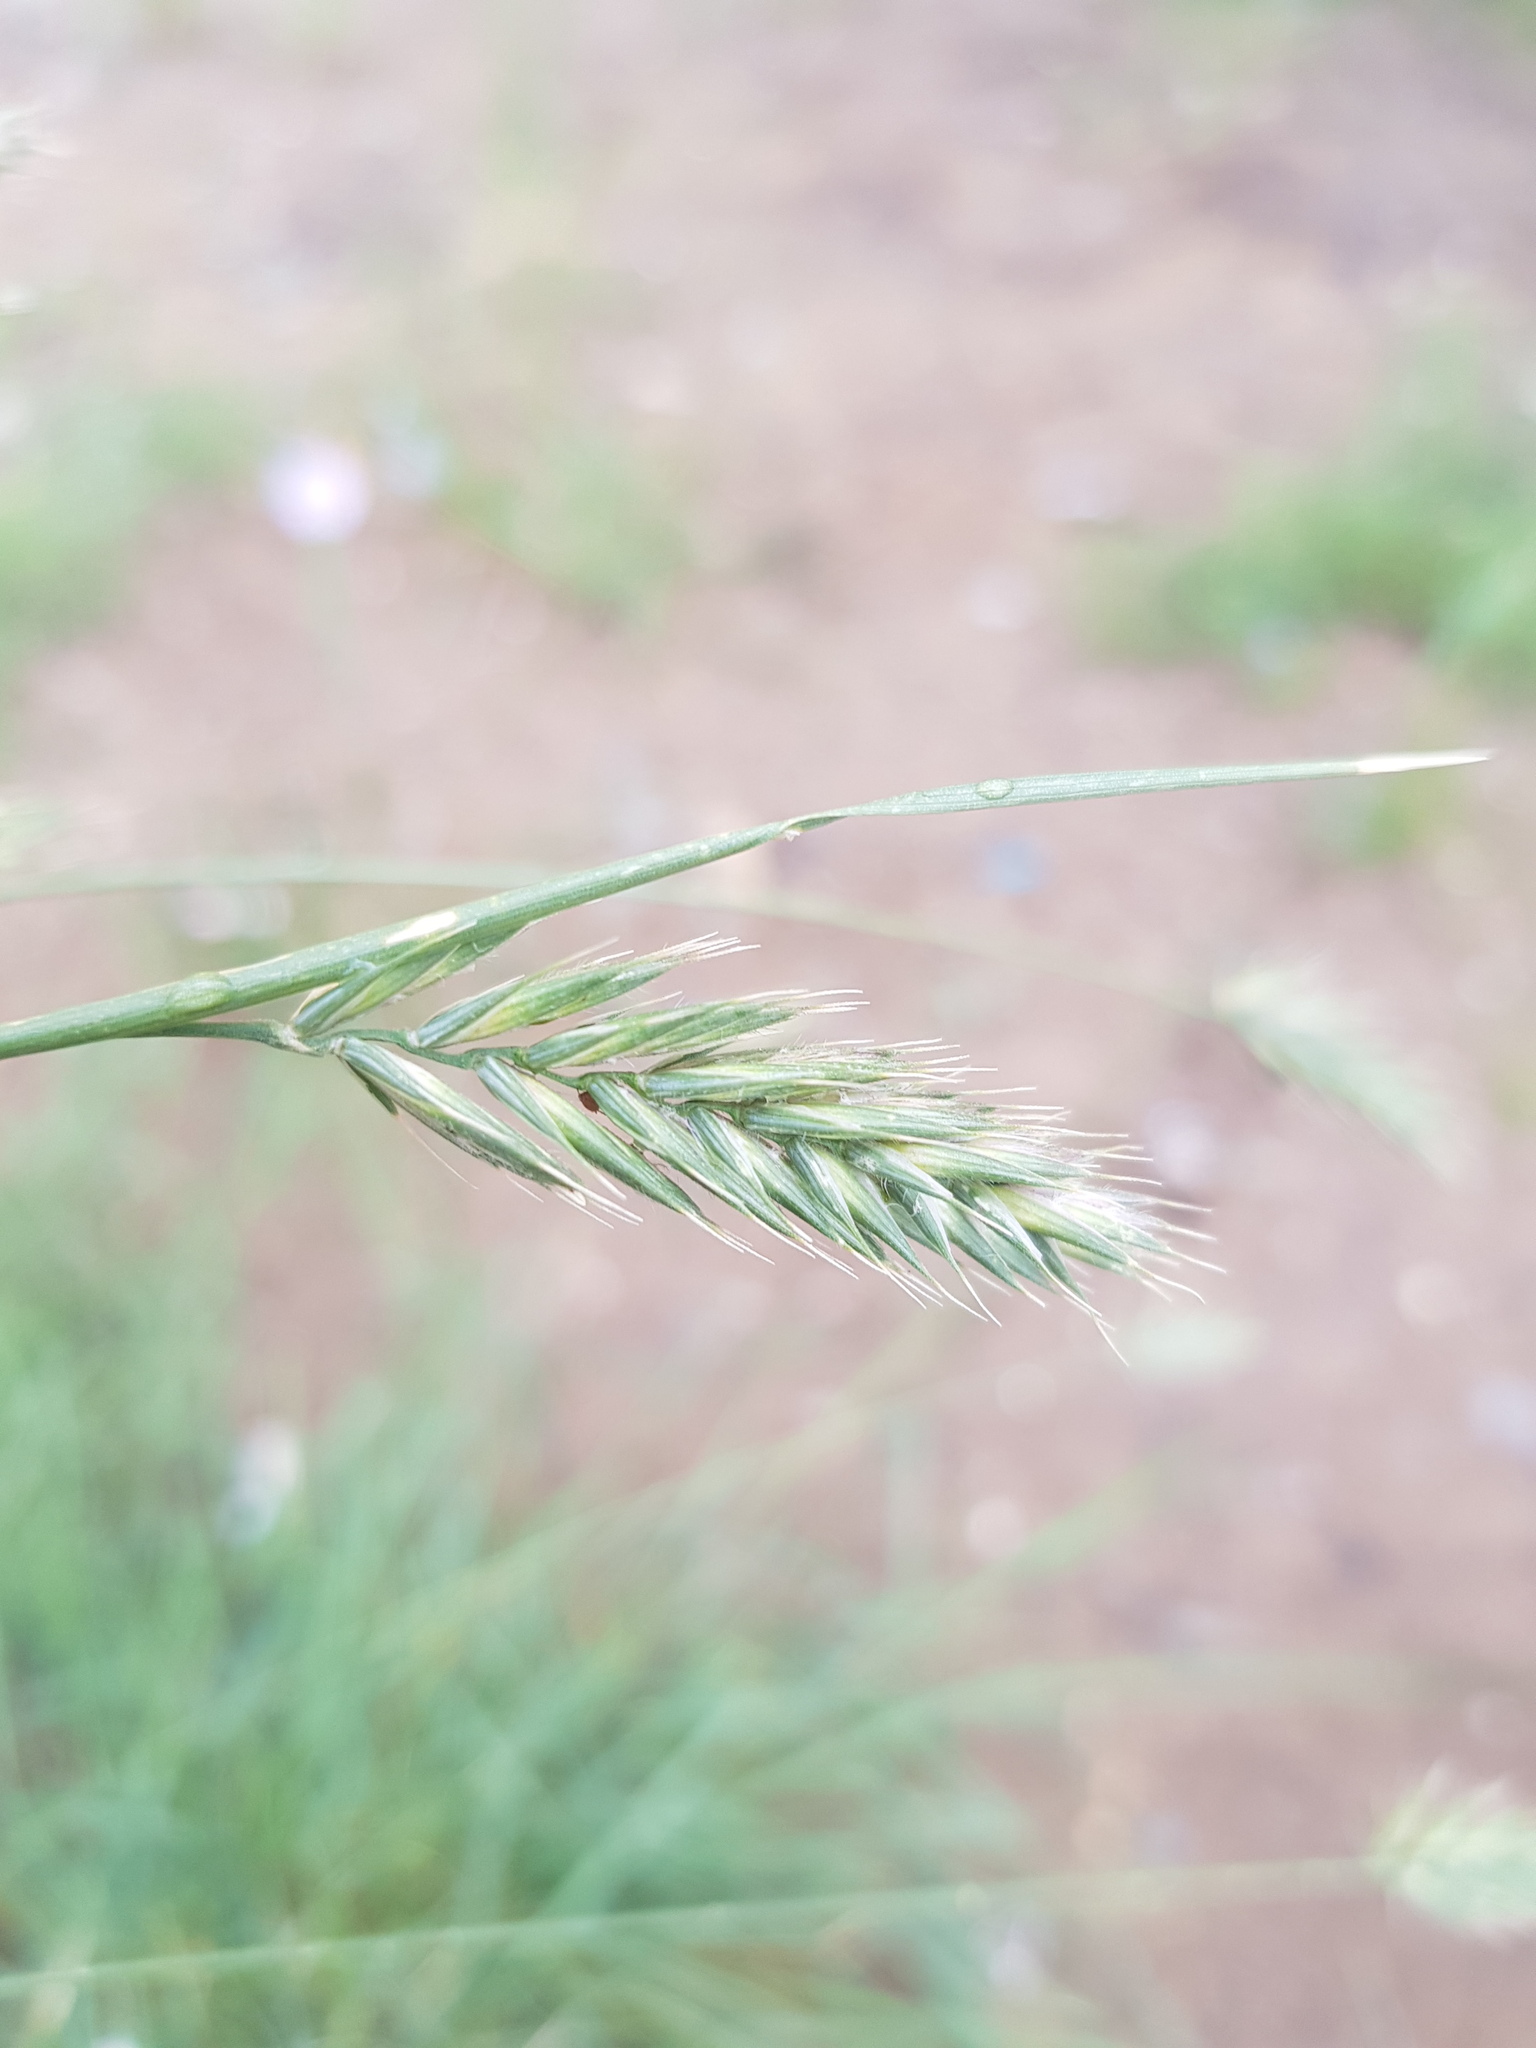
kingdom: Plantae
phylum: Tracheophyta
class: Liliopsida
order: Poales
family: Poaceae
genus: Leymus
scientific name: Leymus chinensis
